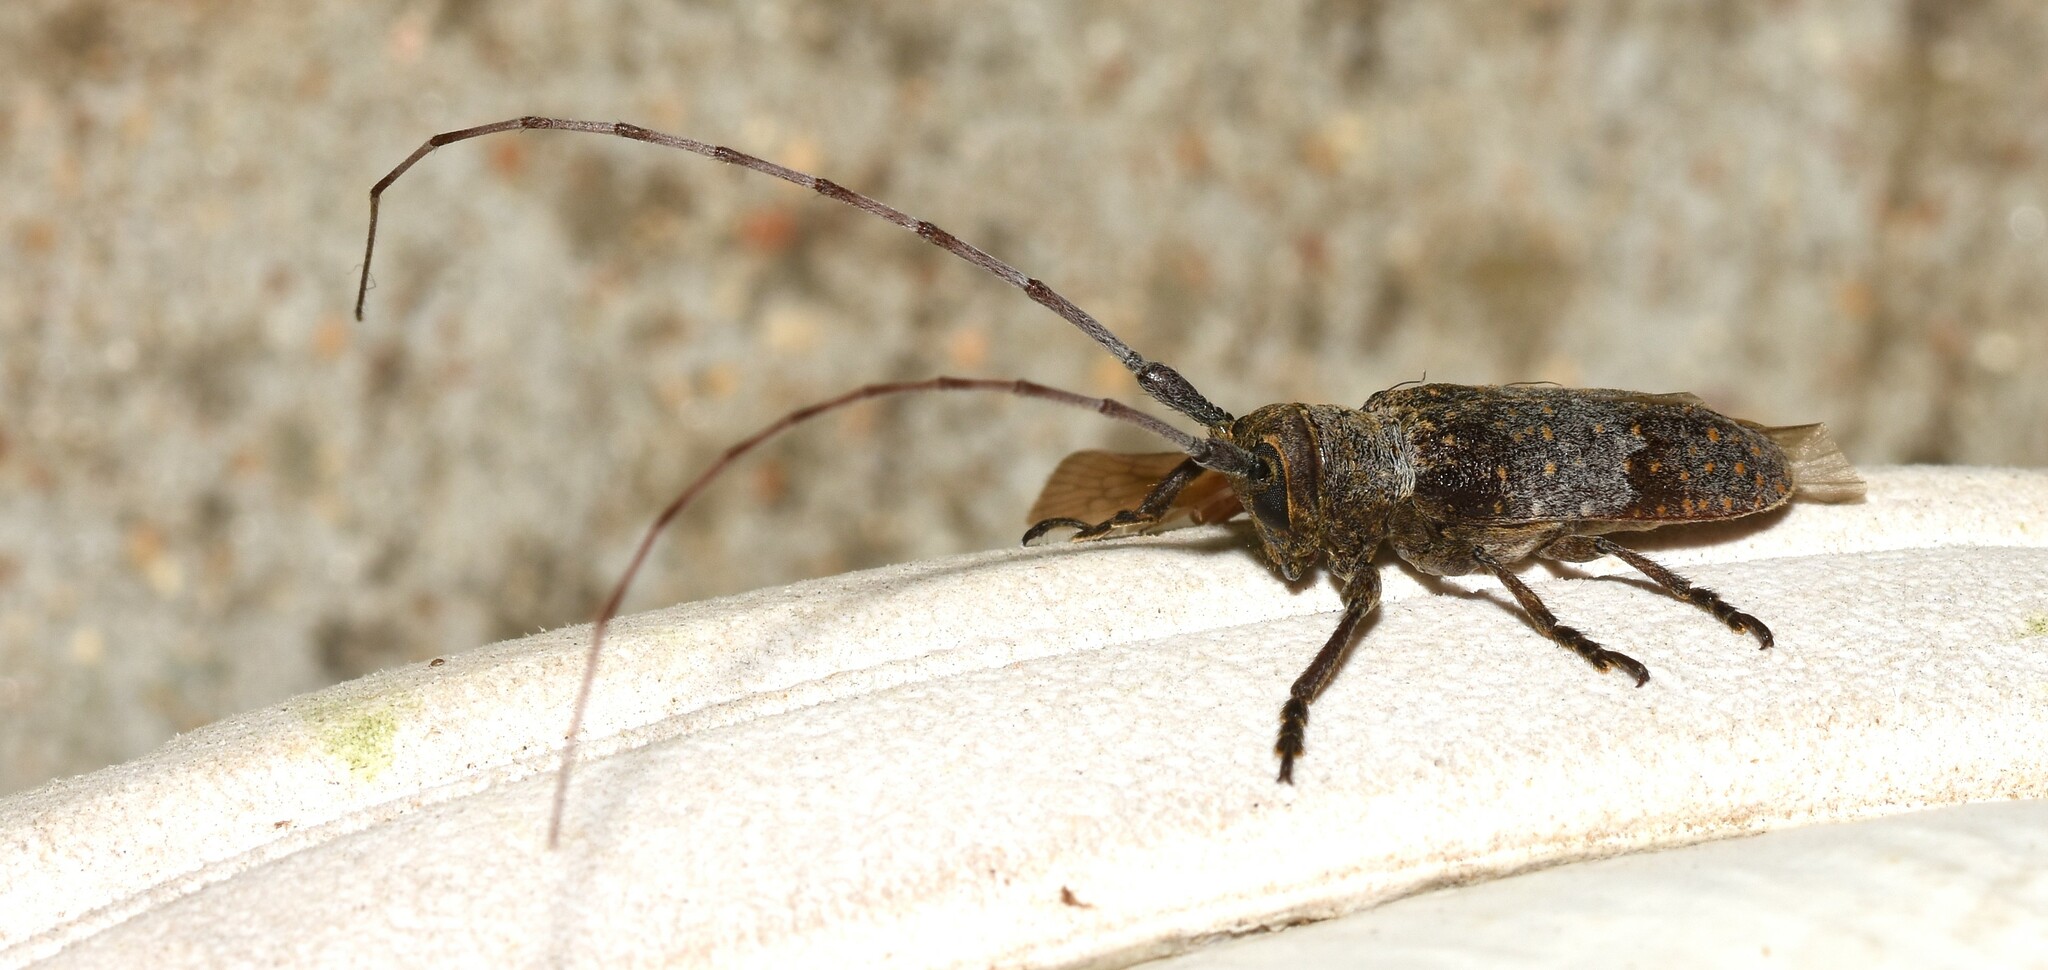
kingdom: Animalia
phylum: Arthropoda
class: Insecta
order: Coleoptera
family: Cerambycidae
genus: Oncideres
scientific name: Oncideres cingulata
